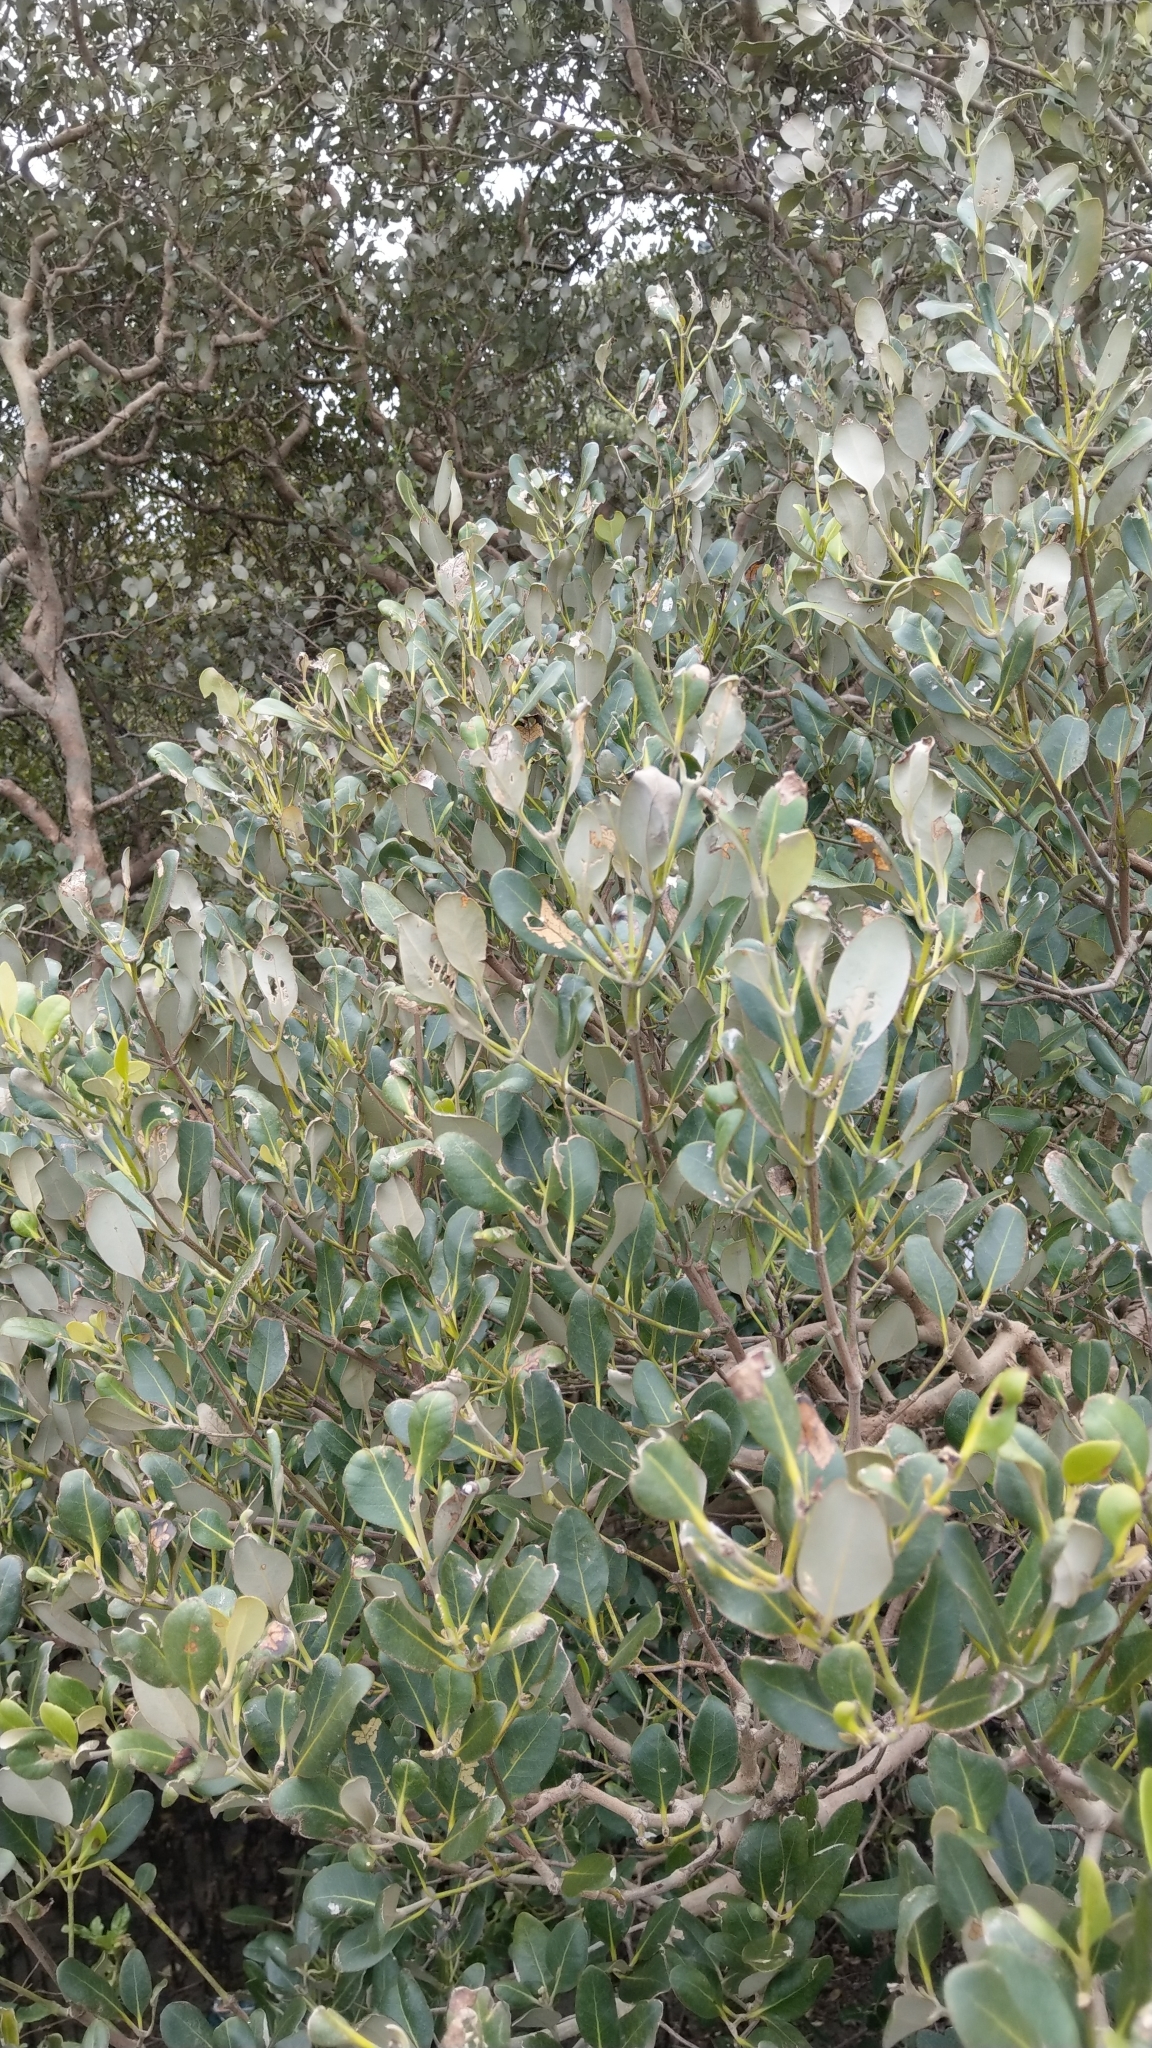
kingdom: Plantae
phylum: Tracheophyta
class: Magnoliopsida
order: Lamiales
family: Acanthaceae
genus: Avicennia
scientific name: Avicennia marina
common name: Gray mangrove
